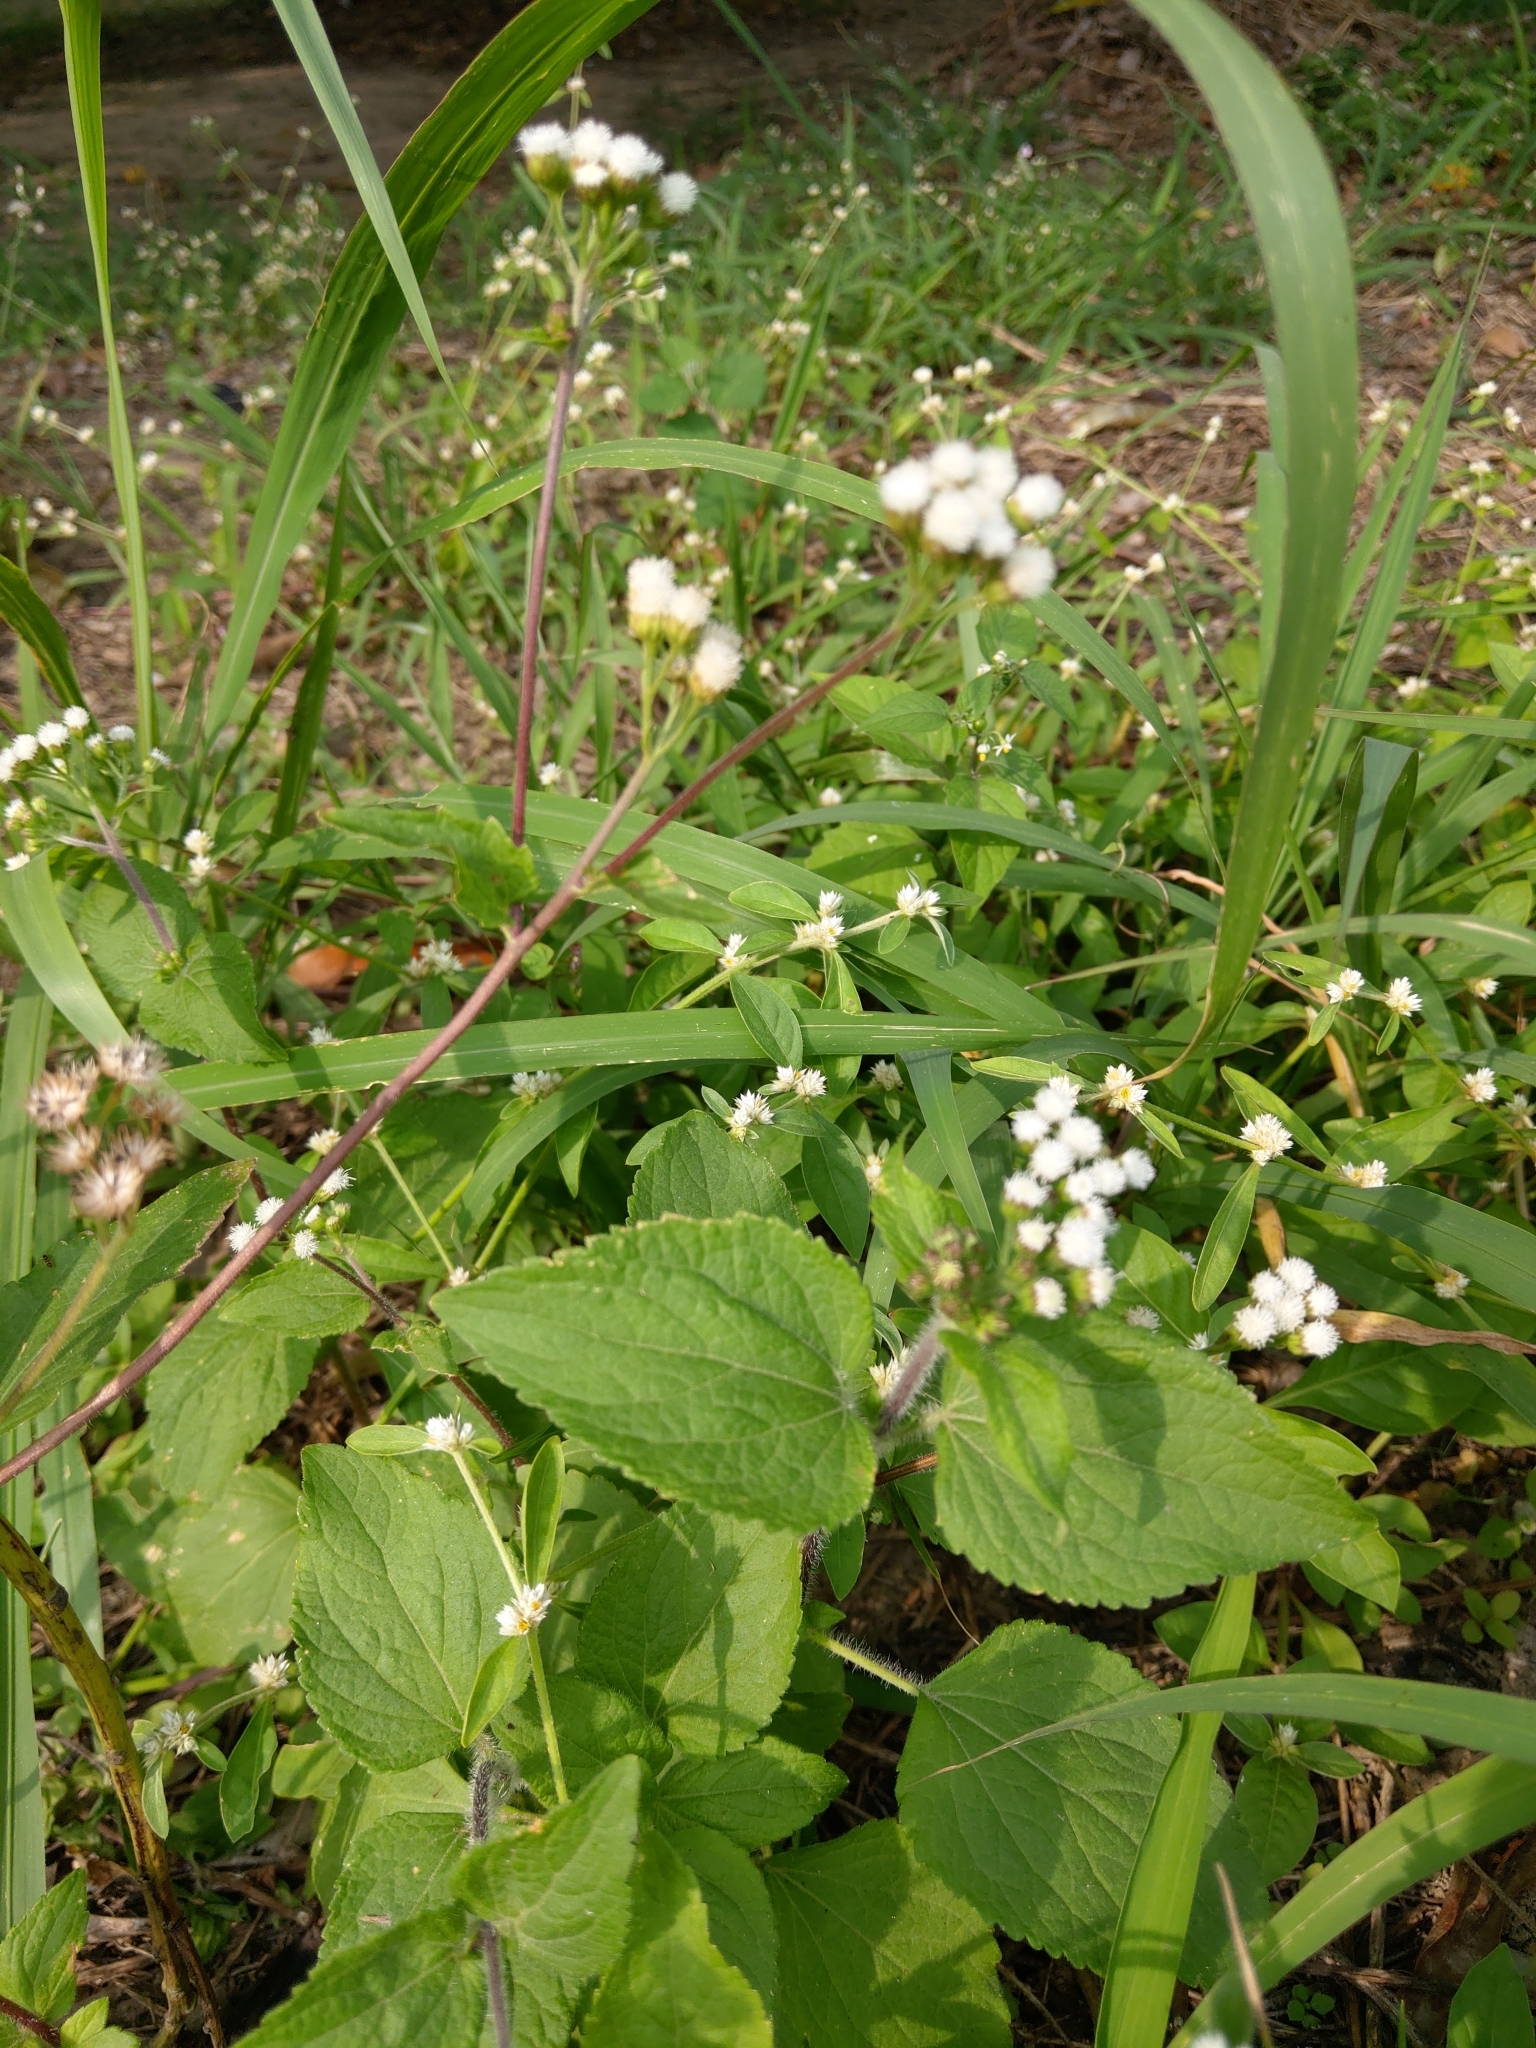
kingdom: Plantae
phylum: Tracheophyta
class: Magnoliopsida
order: Asterales
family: Asteraceae
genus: Ageratum
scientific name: Ageratum conyzoides
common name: Tropical whiteweed
